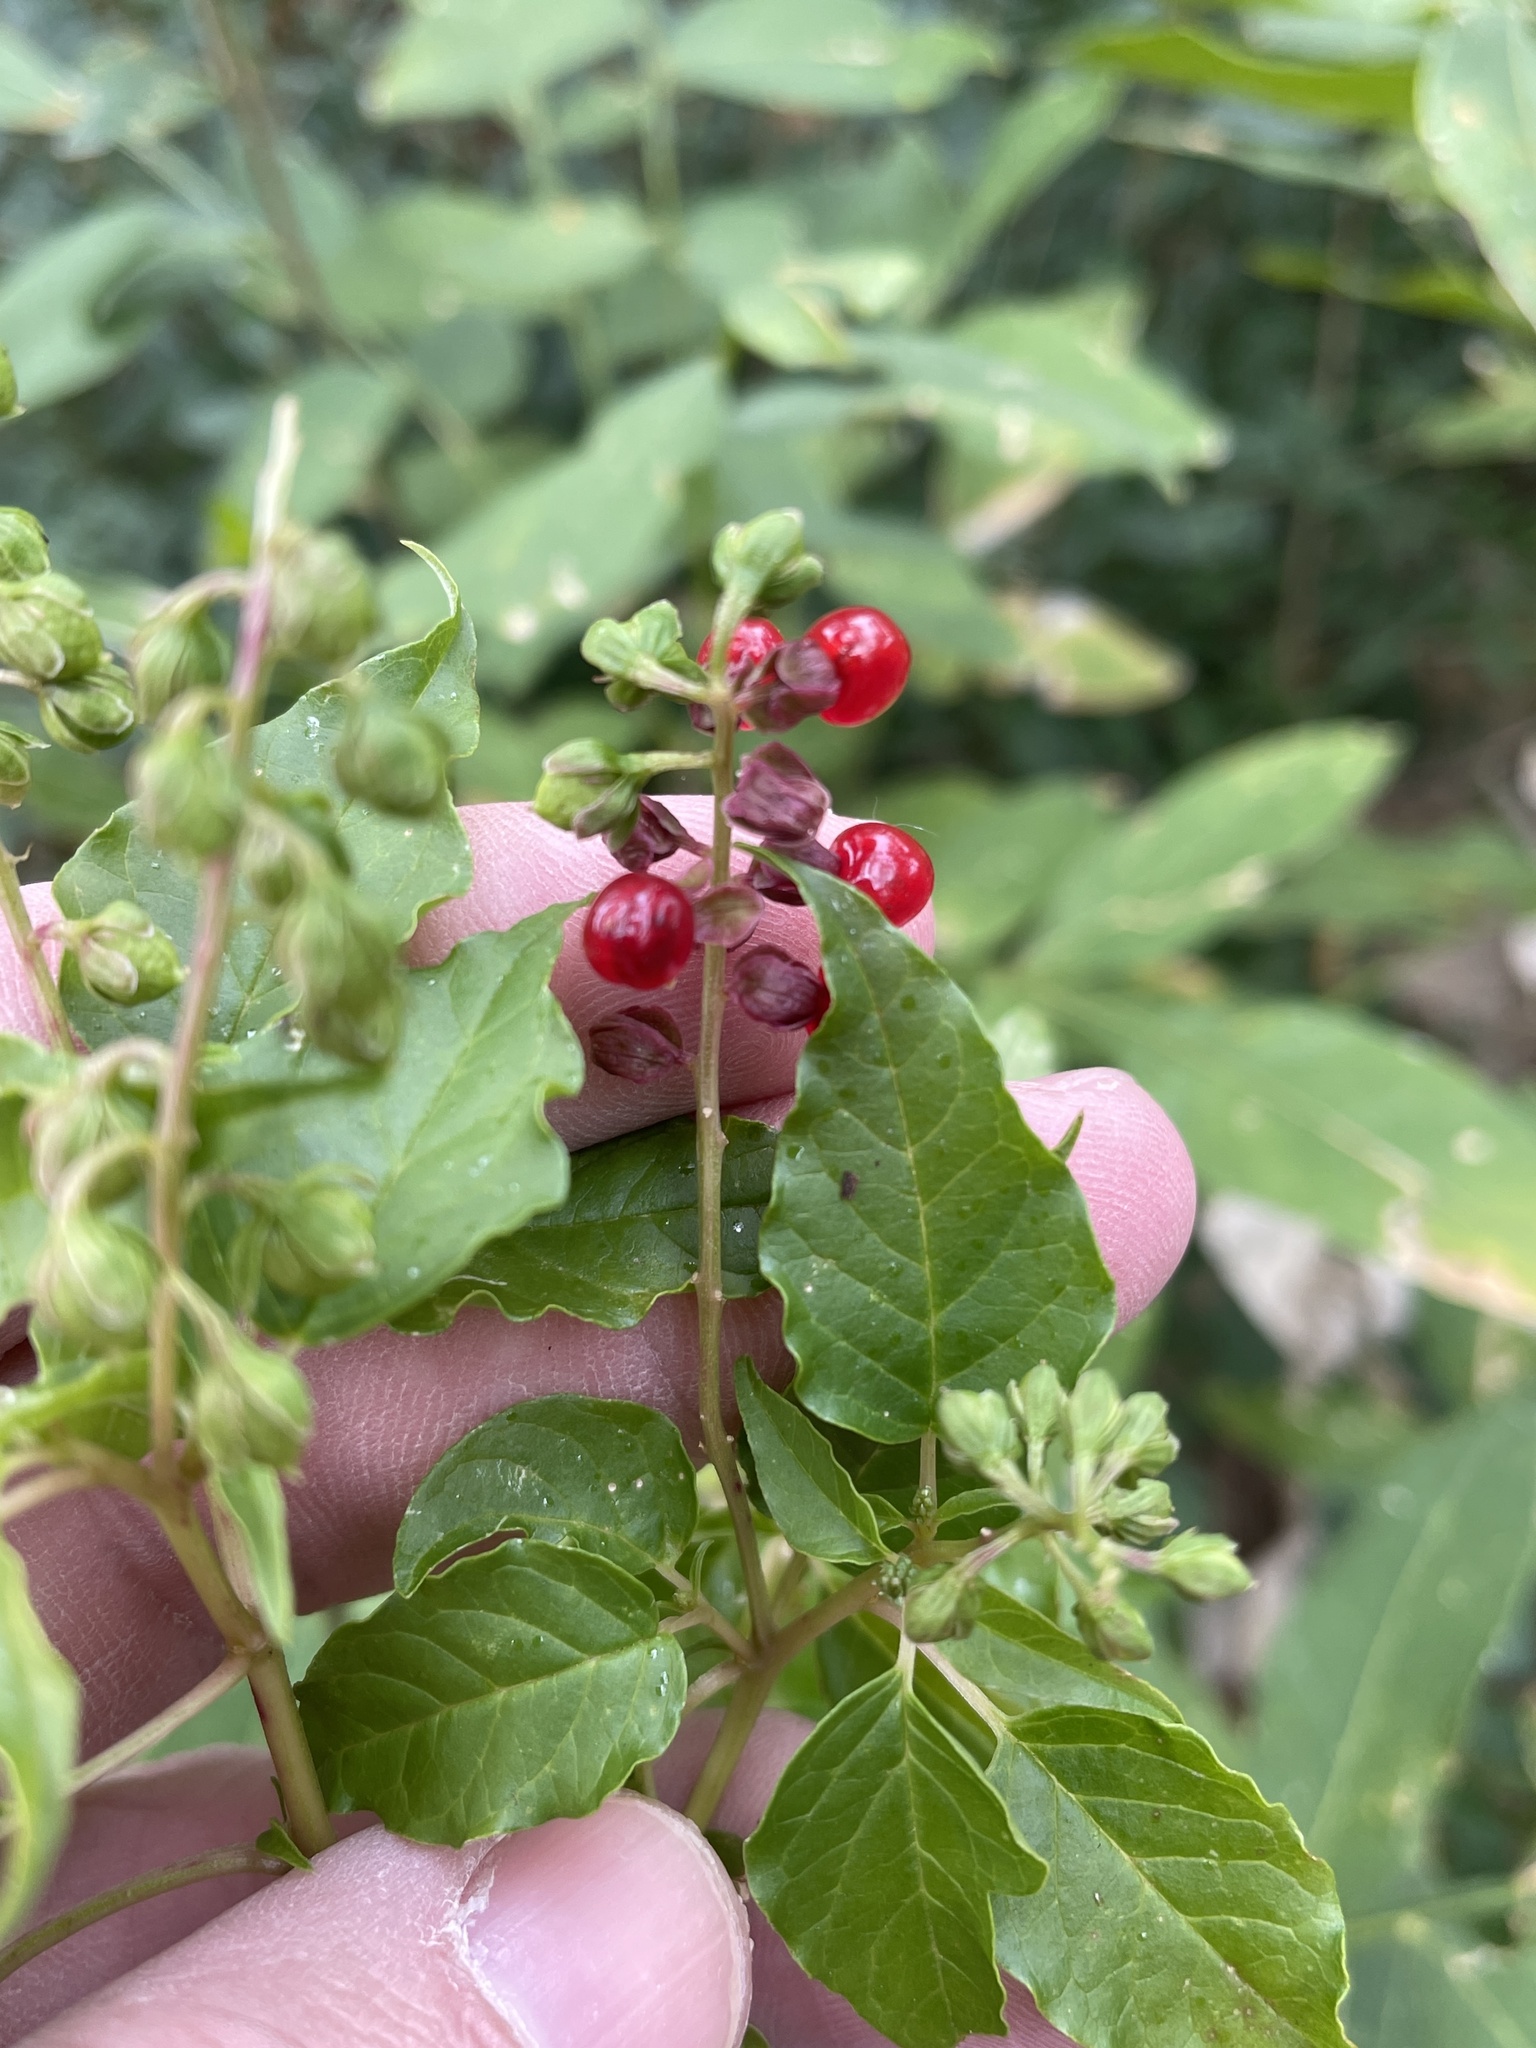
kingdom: Plantae
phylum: Tracheophyta
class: Magnoliopsida
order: Caryophyllales
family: Phytolaccaceae
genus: Rivina
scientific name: Rivina humilis
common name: Rougeplant
